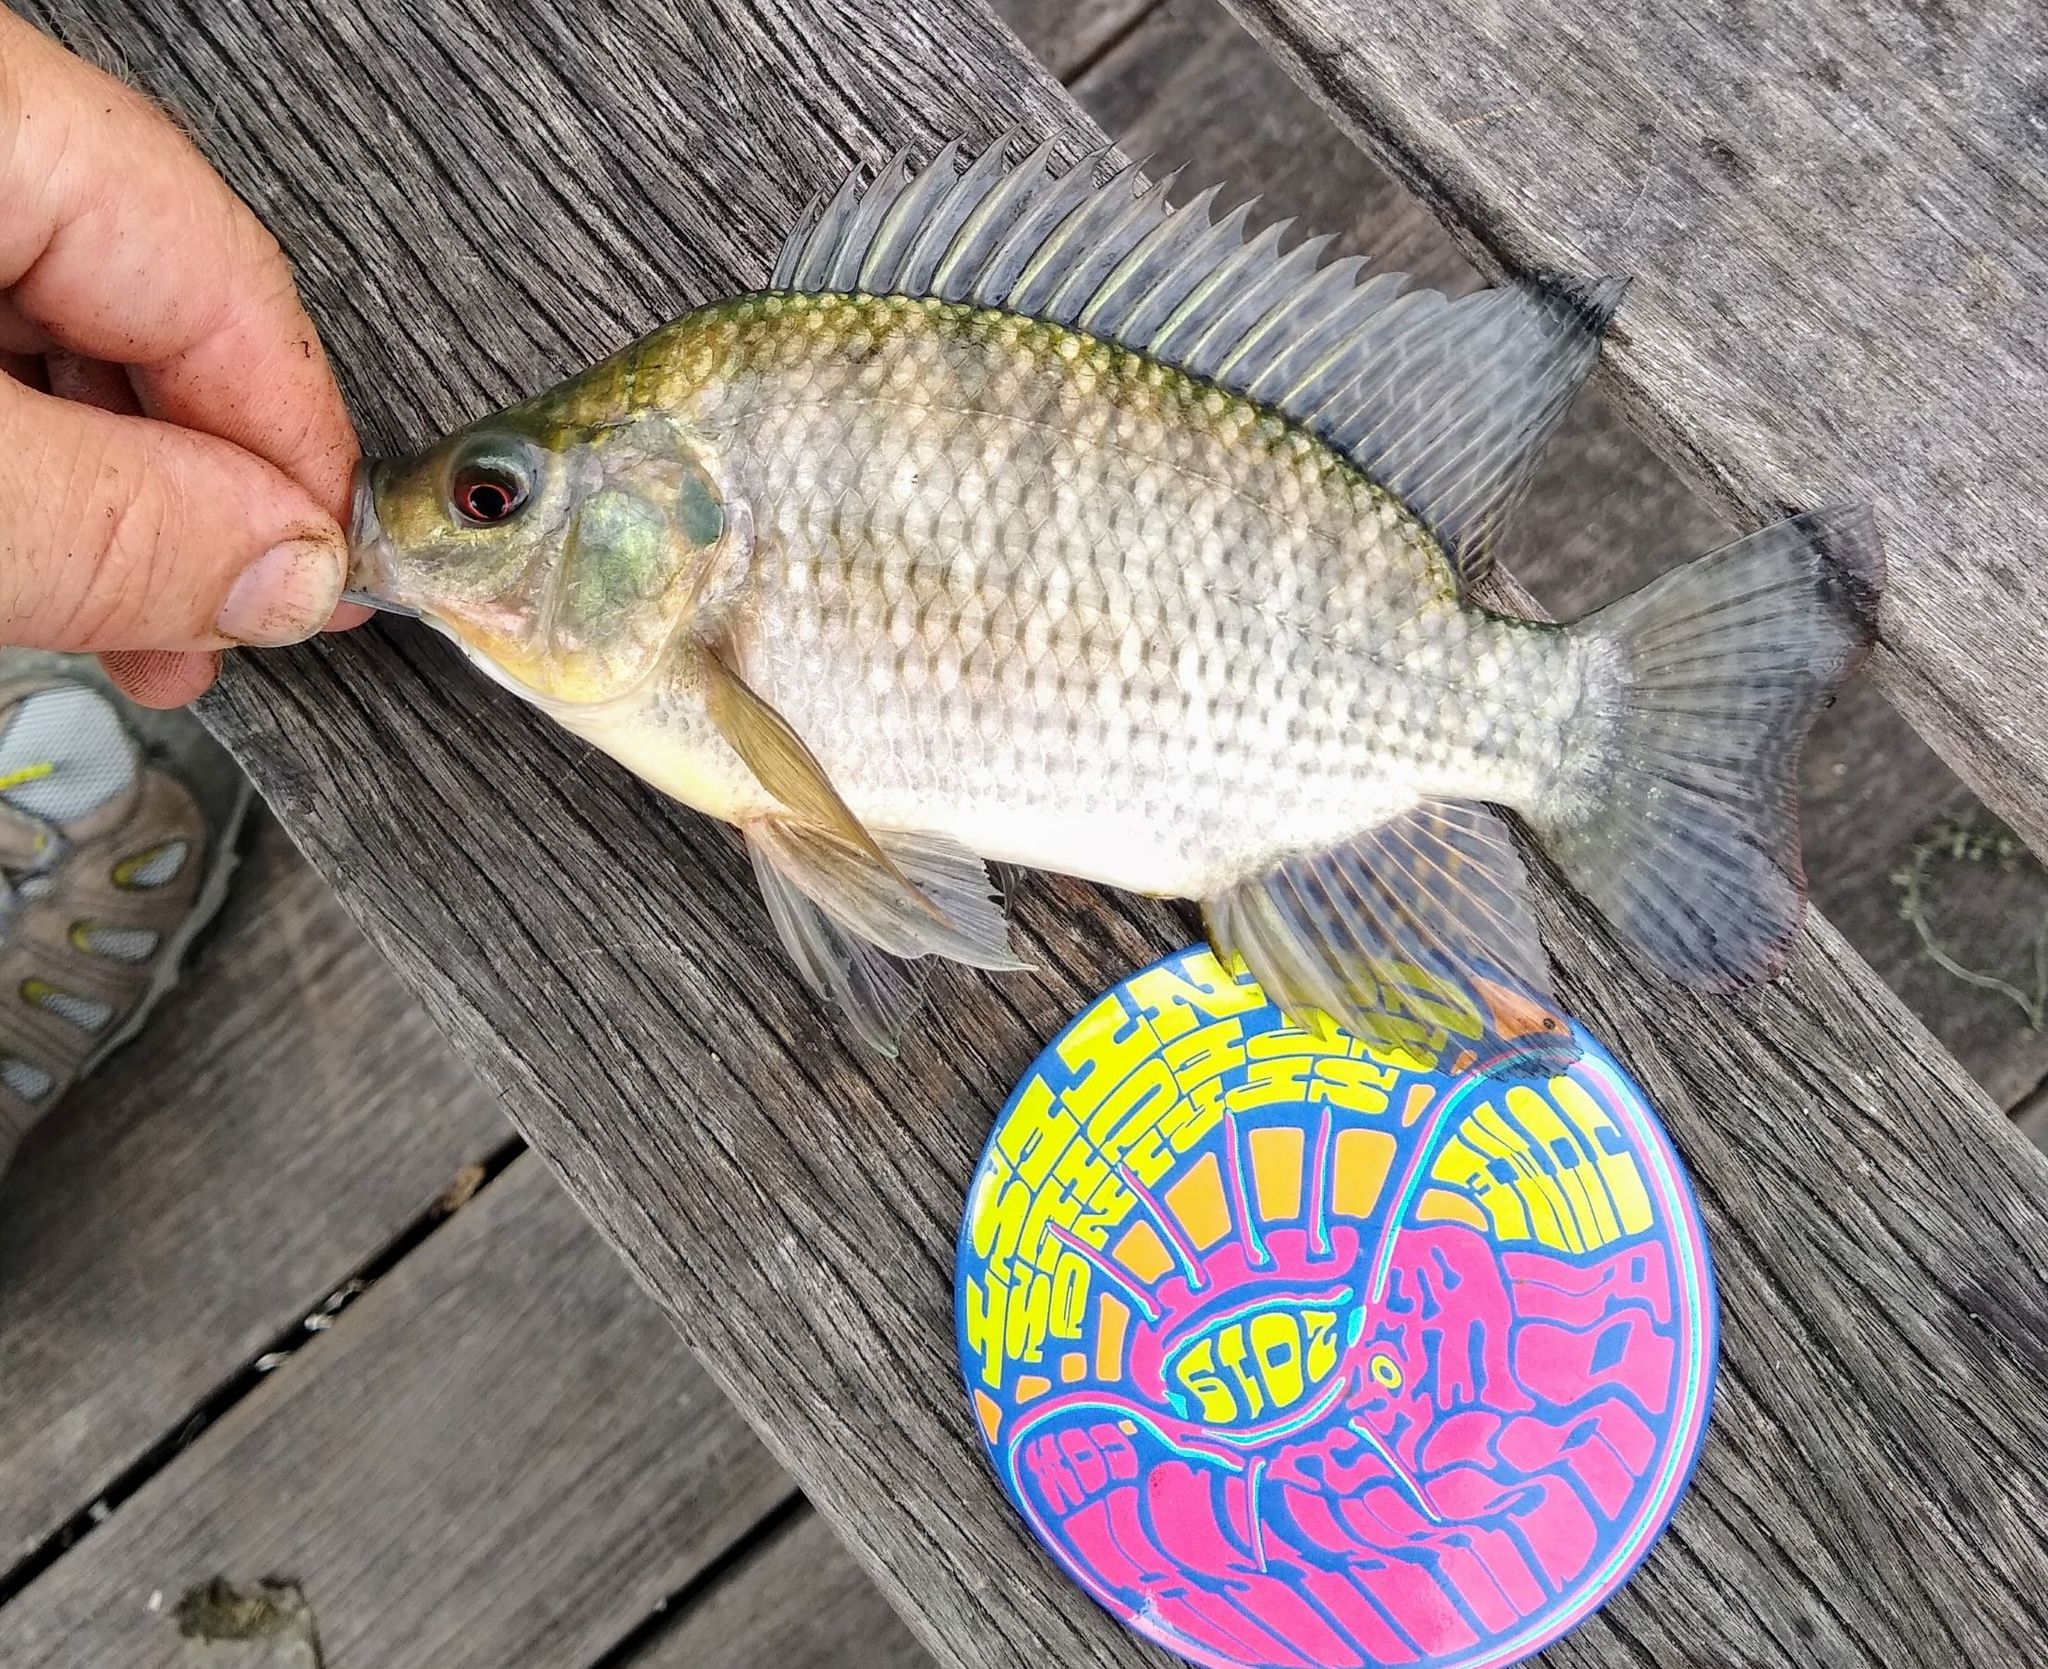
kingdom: Animalia
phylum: Chordata
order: Perciformes
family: Cichlidae
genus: Oreochromis
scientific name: Oreochromis aureus
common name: Blue tilapia
